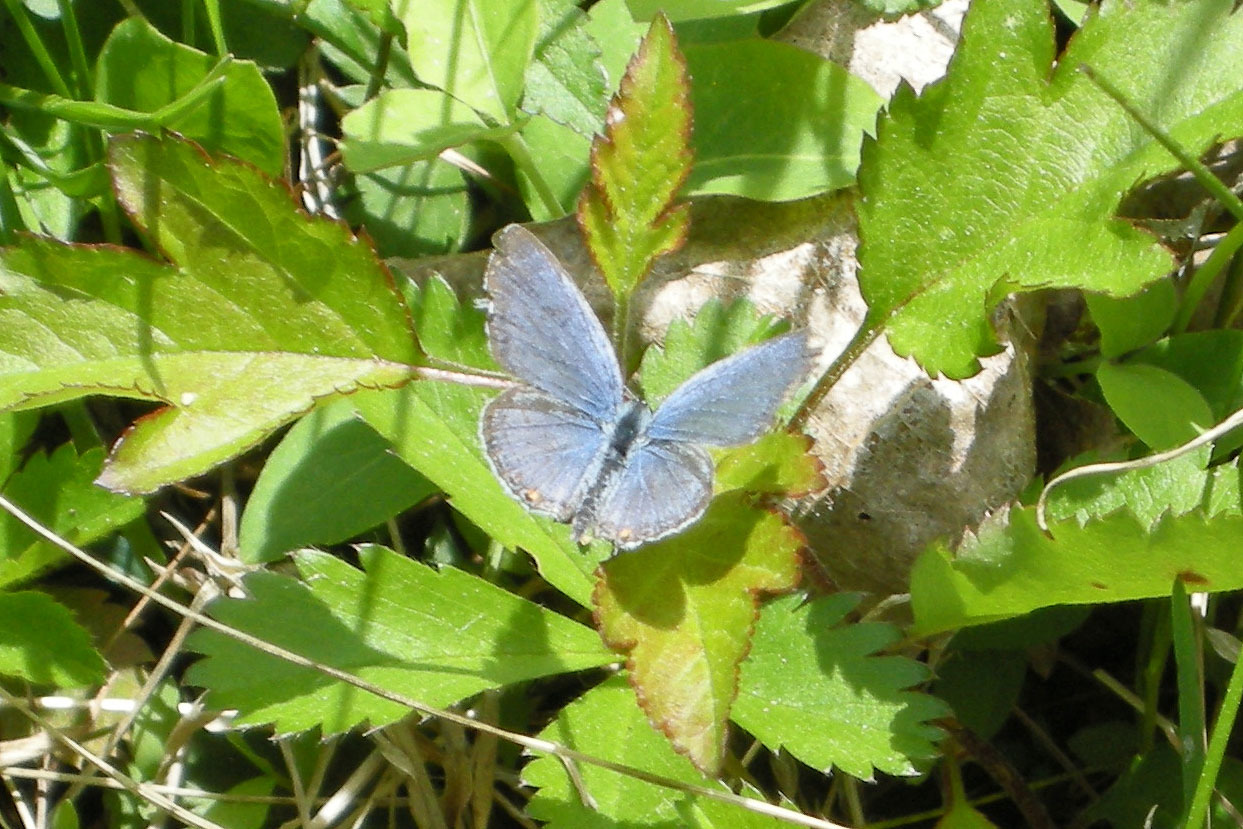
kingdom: Animalia
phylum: Arthropoda
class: Insecta
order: Lepidoptera
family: Lycaenidae
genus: Elkalyce
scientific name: Elkalyce comyntas
